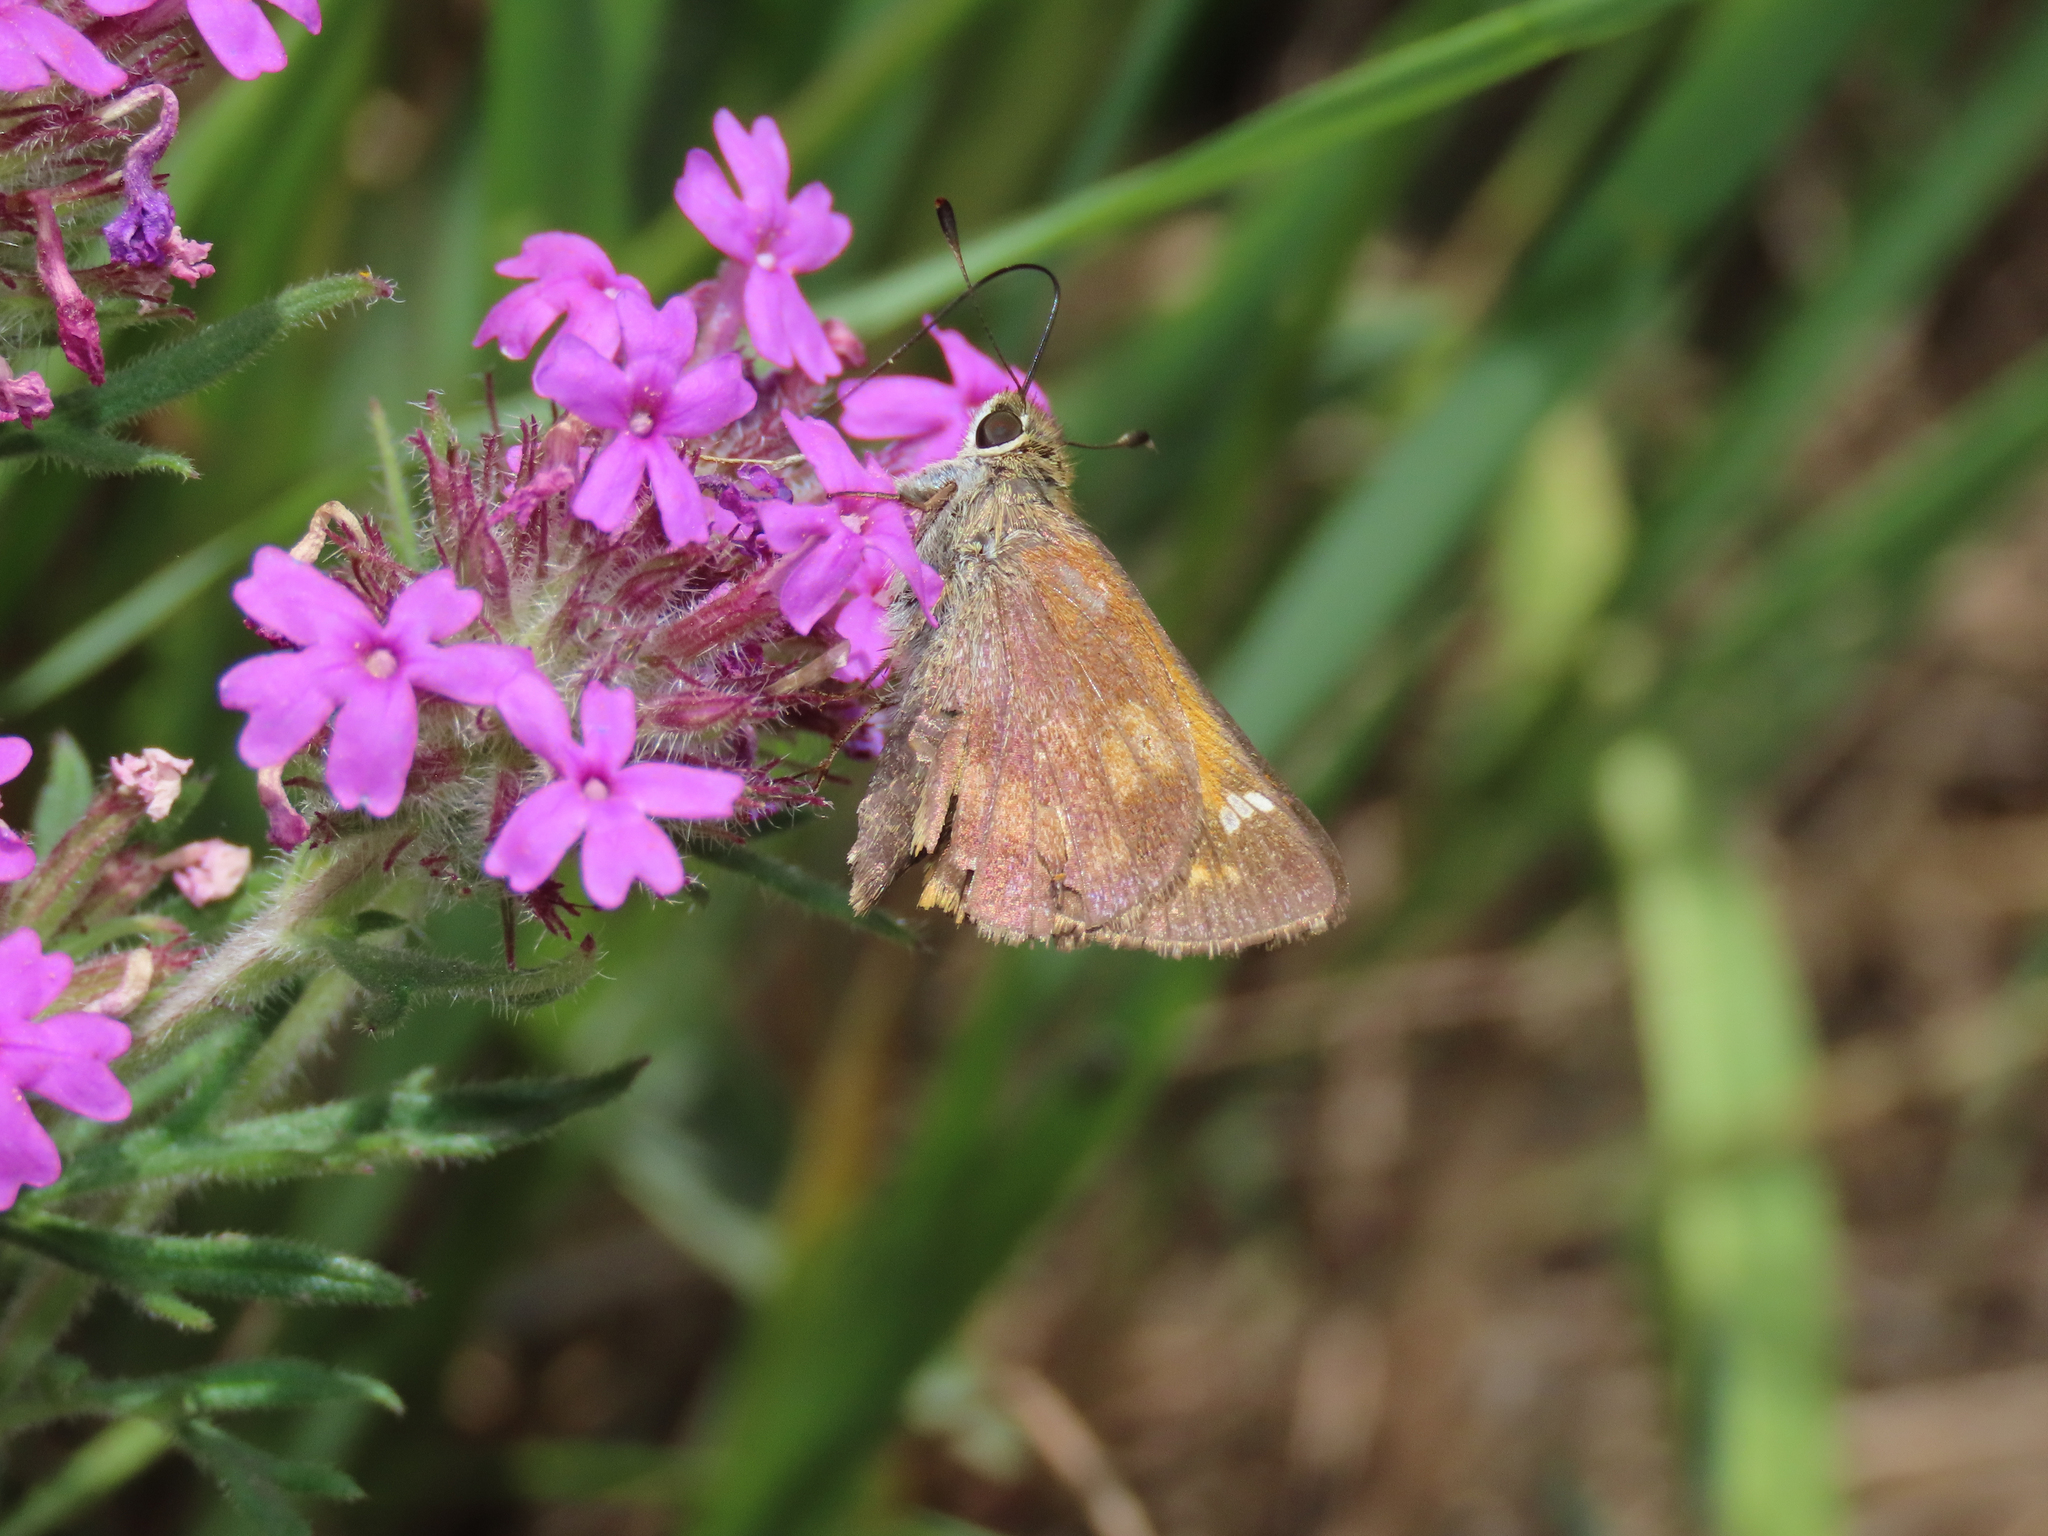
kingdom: Animalia
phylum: Arthropoda
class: Insecta
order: Lepidoptera
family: Hesperiidae
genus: Lon
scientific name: Lon taxiles
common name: Taxiles skipper
